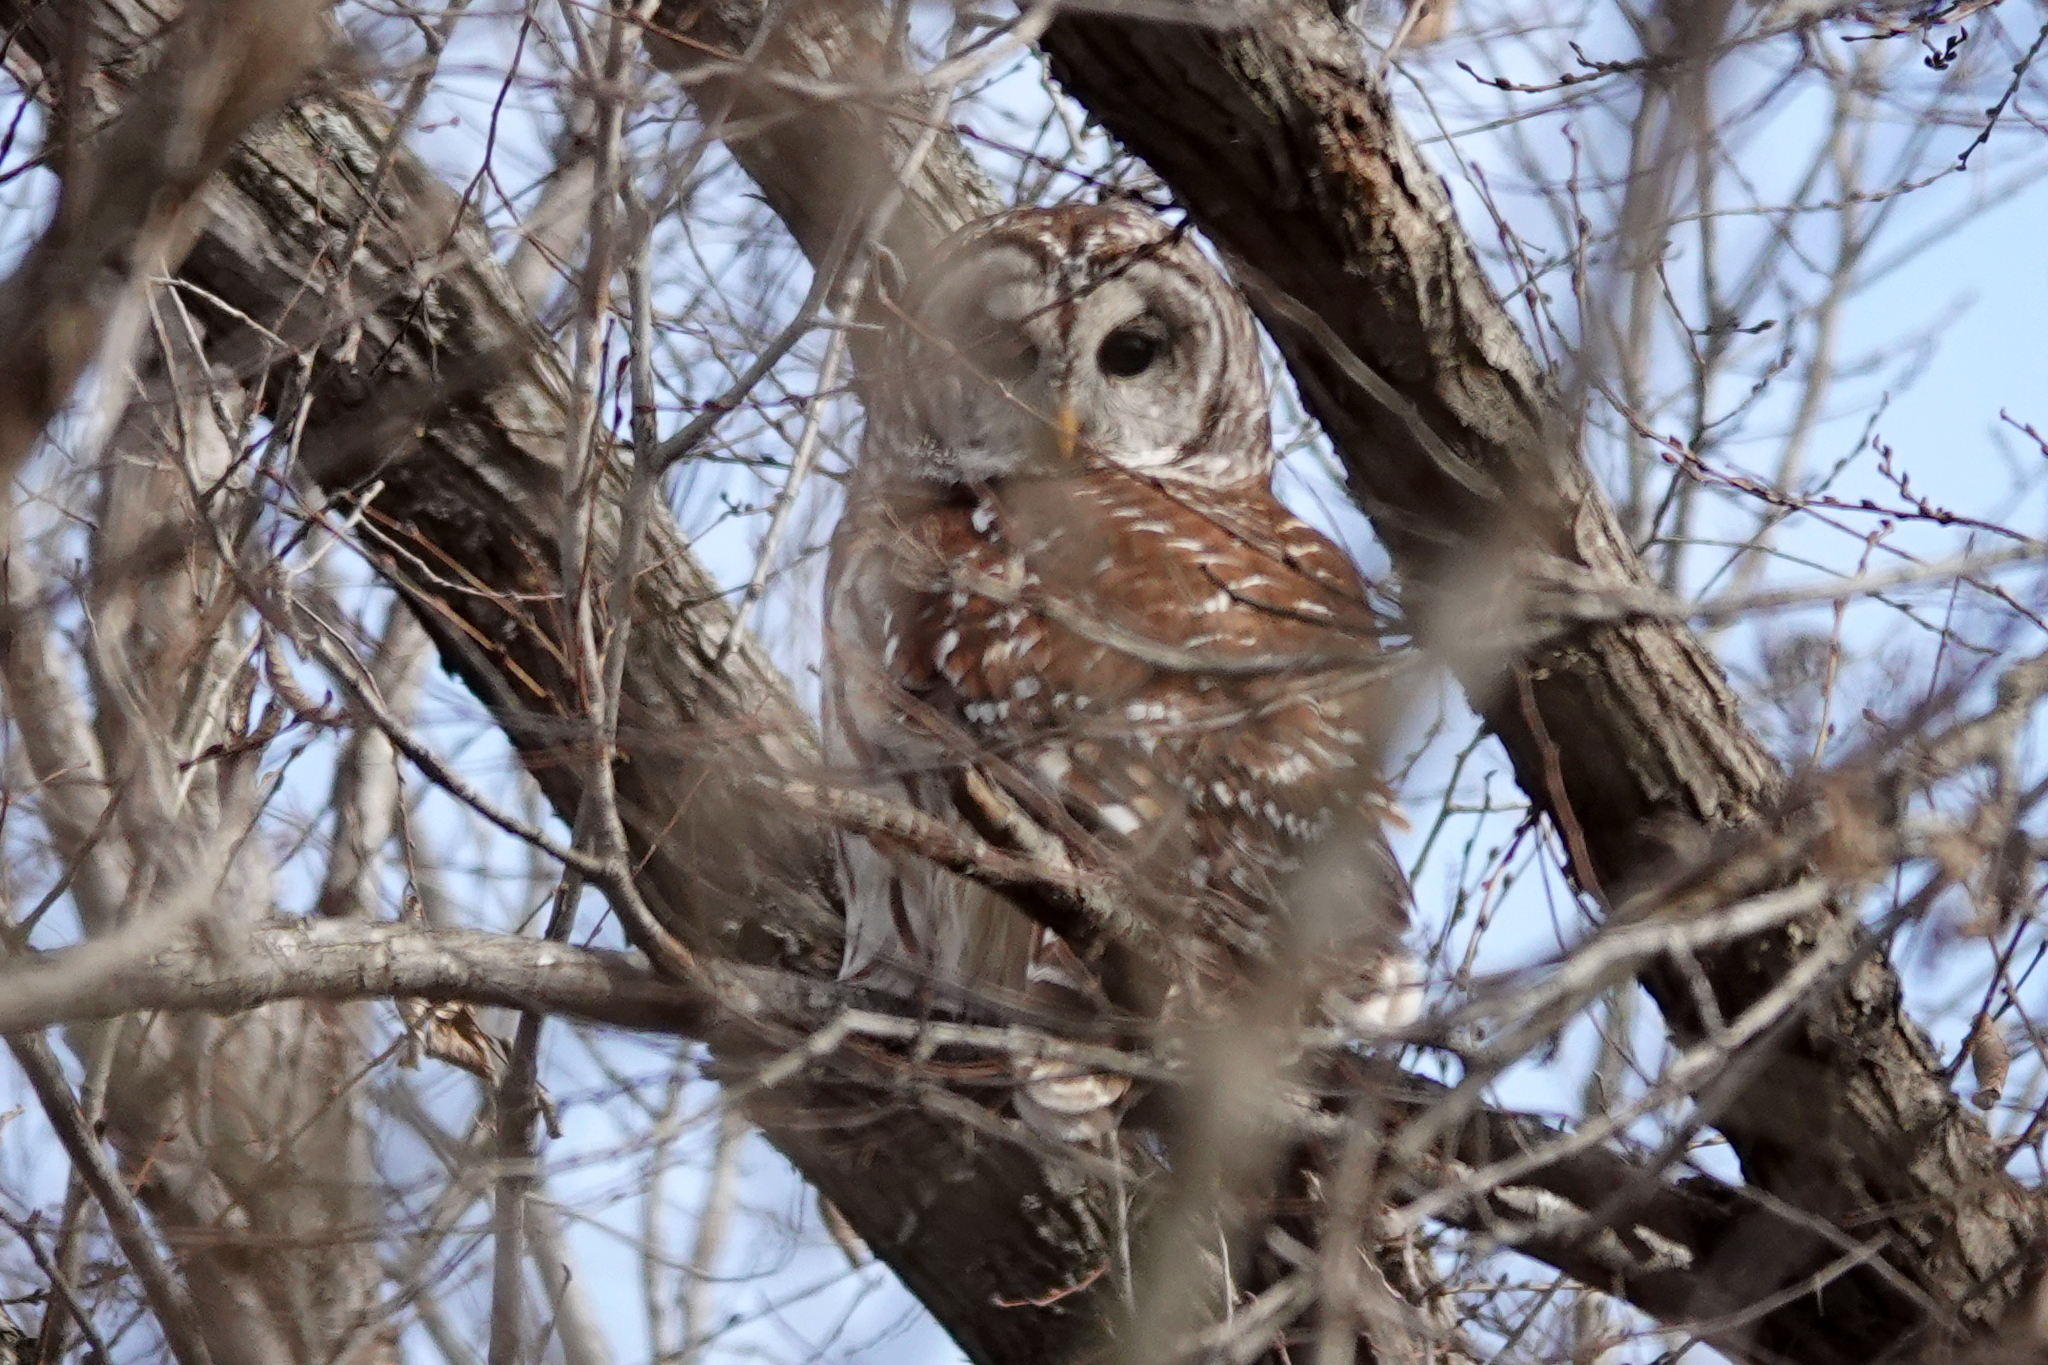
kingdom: Animalia
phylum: Chordata
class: Aves
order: Strigiformes
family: Strigidae
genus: Strix
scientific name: Strix varia
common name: Barred owl
